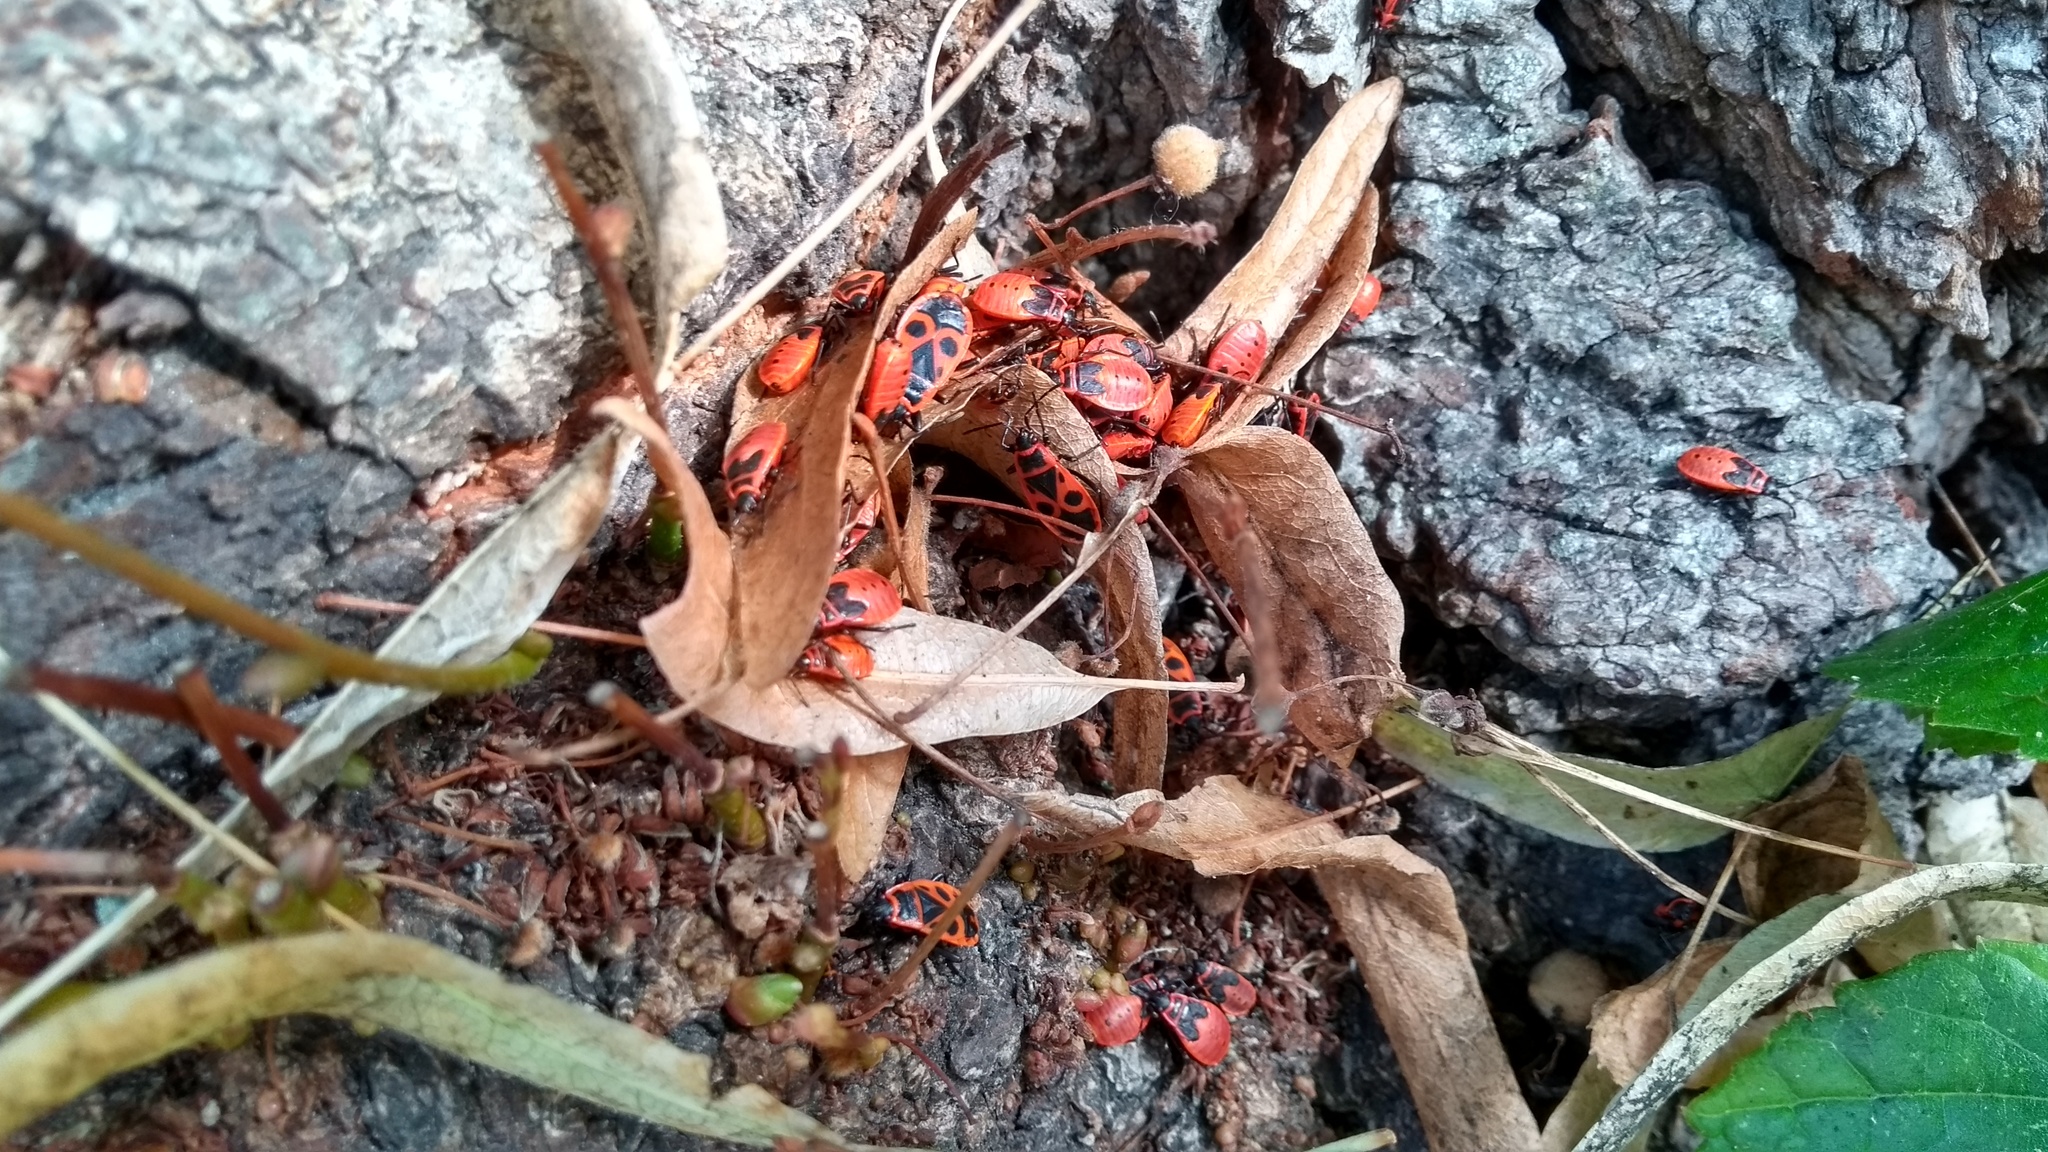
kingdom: Animalia
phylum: Arthropoda
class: Insecta
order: Hemiptera
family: Pyrrhocoridae
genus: Pyrrhocoris
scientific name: Pyrrhocoris apterus
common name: Firebug
